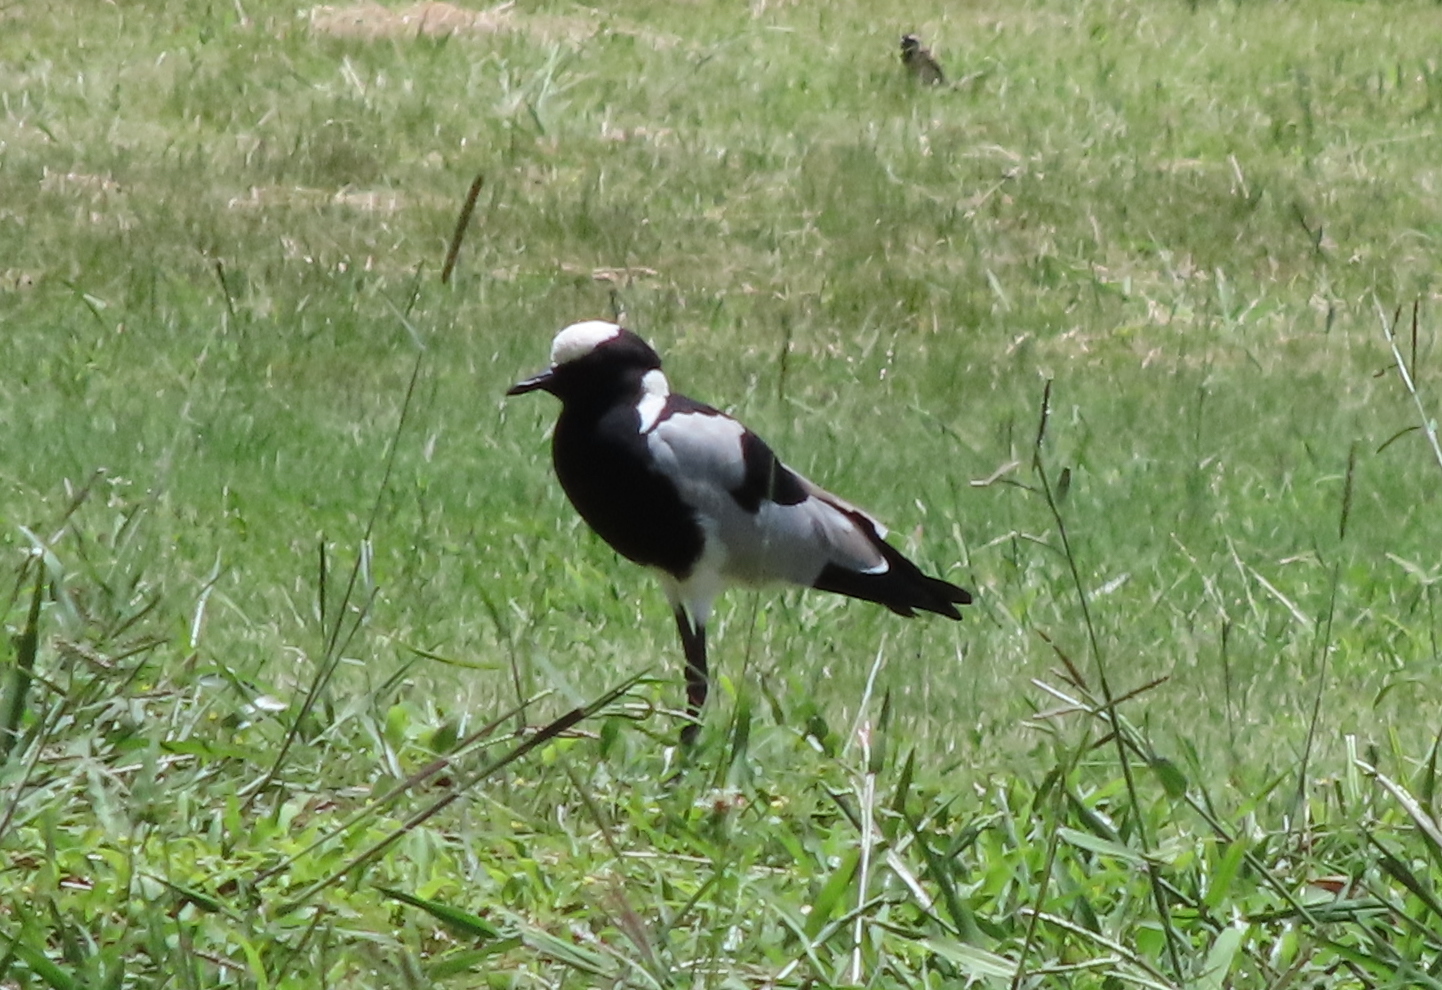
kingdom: Animalia
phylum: Chordata
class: Aves
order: Charadriiformes
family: Charadriidae
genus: Vanellus
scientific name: Vanellus armatus
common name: Blacksmith lapwing
